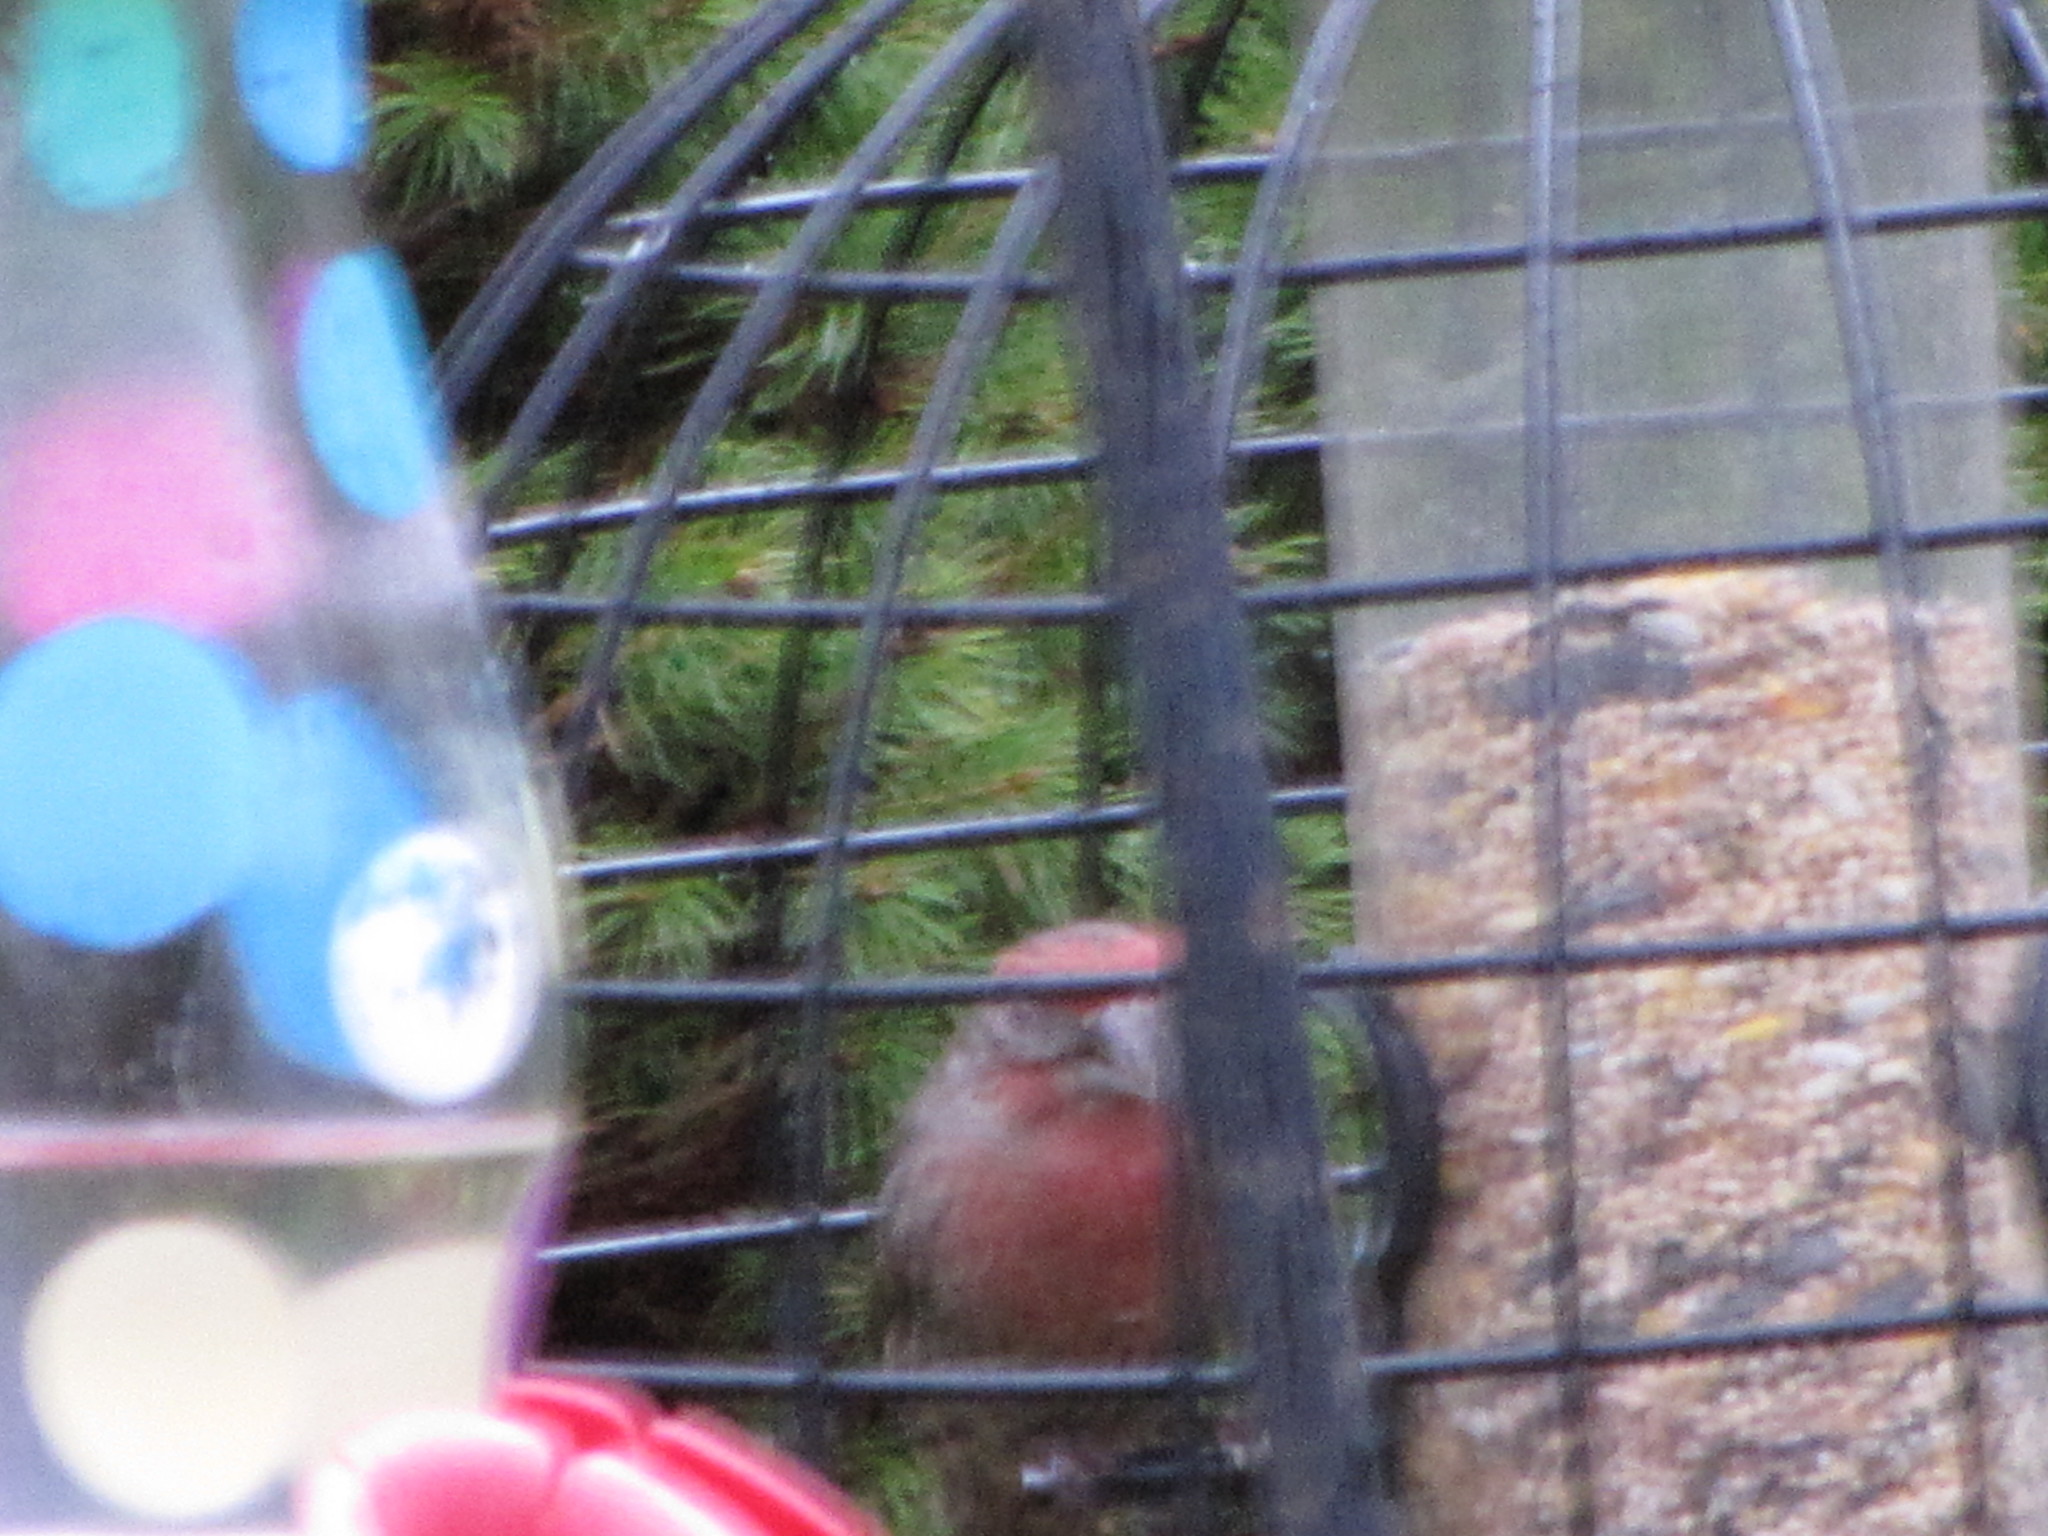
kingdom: Animalia
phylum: Chordata
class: Aves
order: Passeriformes
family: Fringillidae
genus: Haemorhous
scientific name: Haemorhous mexicanus
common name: House finch
